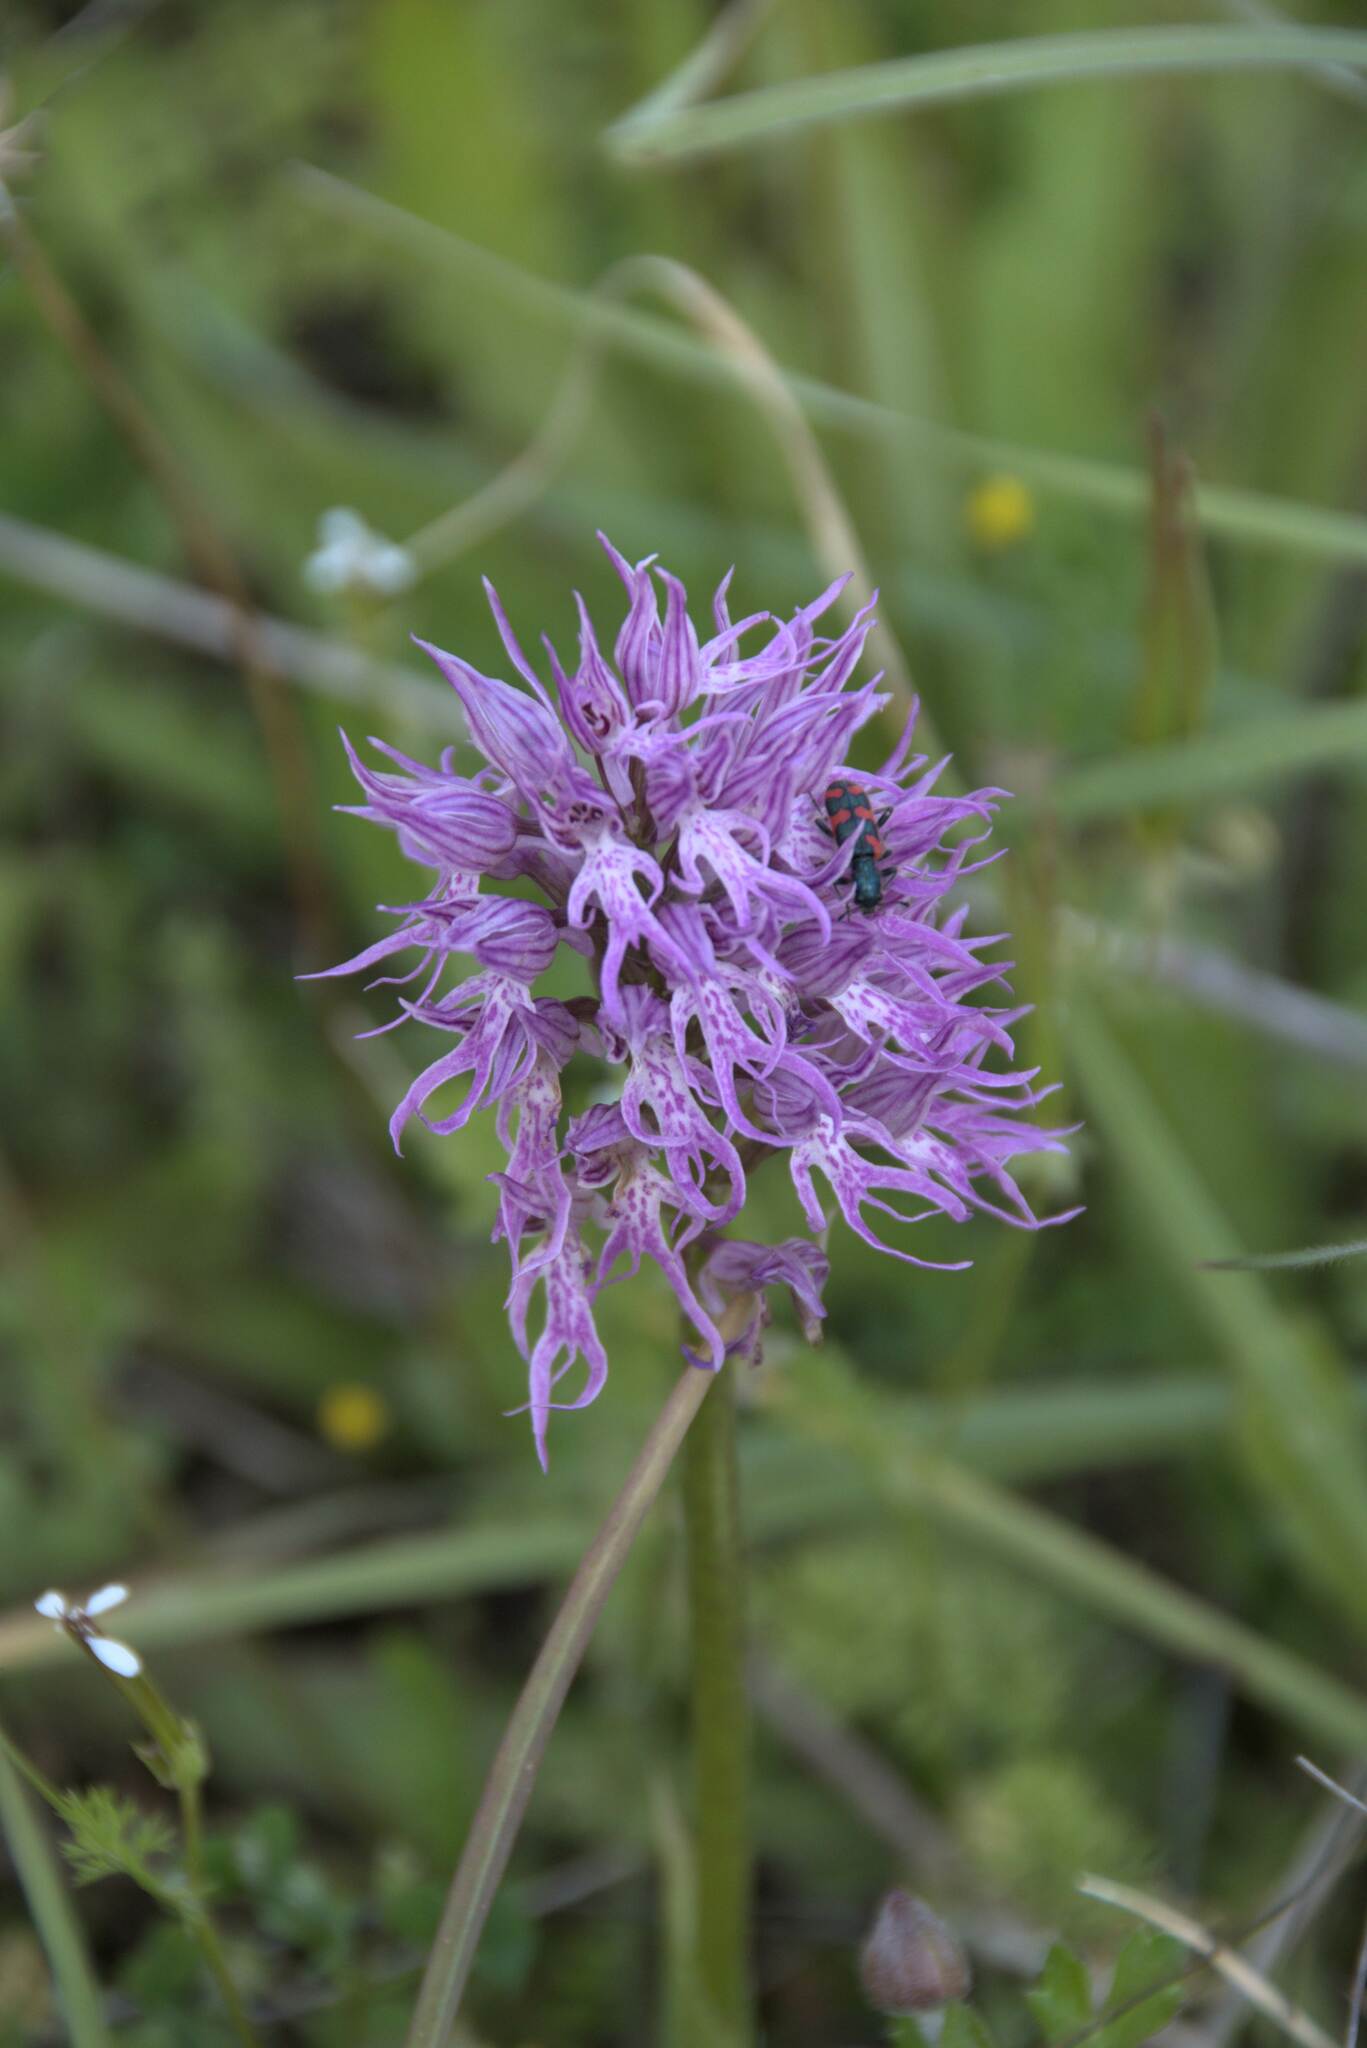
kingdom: Plantae
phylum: Tracheophyta
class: Liliopsida
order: Asparagales
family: Orchidaceae
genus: Orchis
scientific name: Orchis italica
